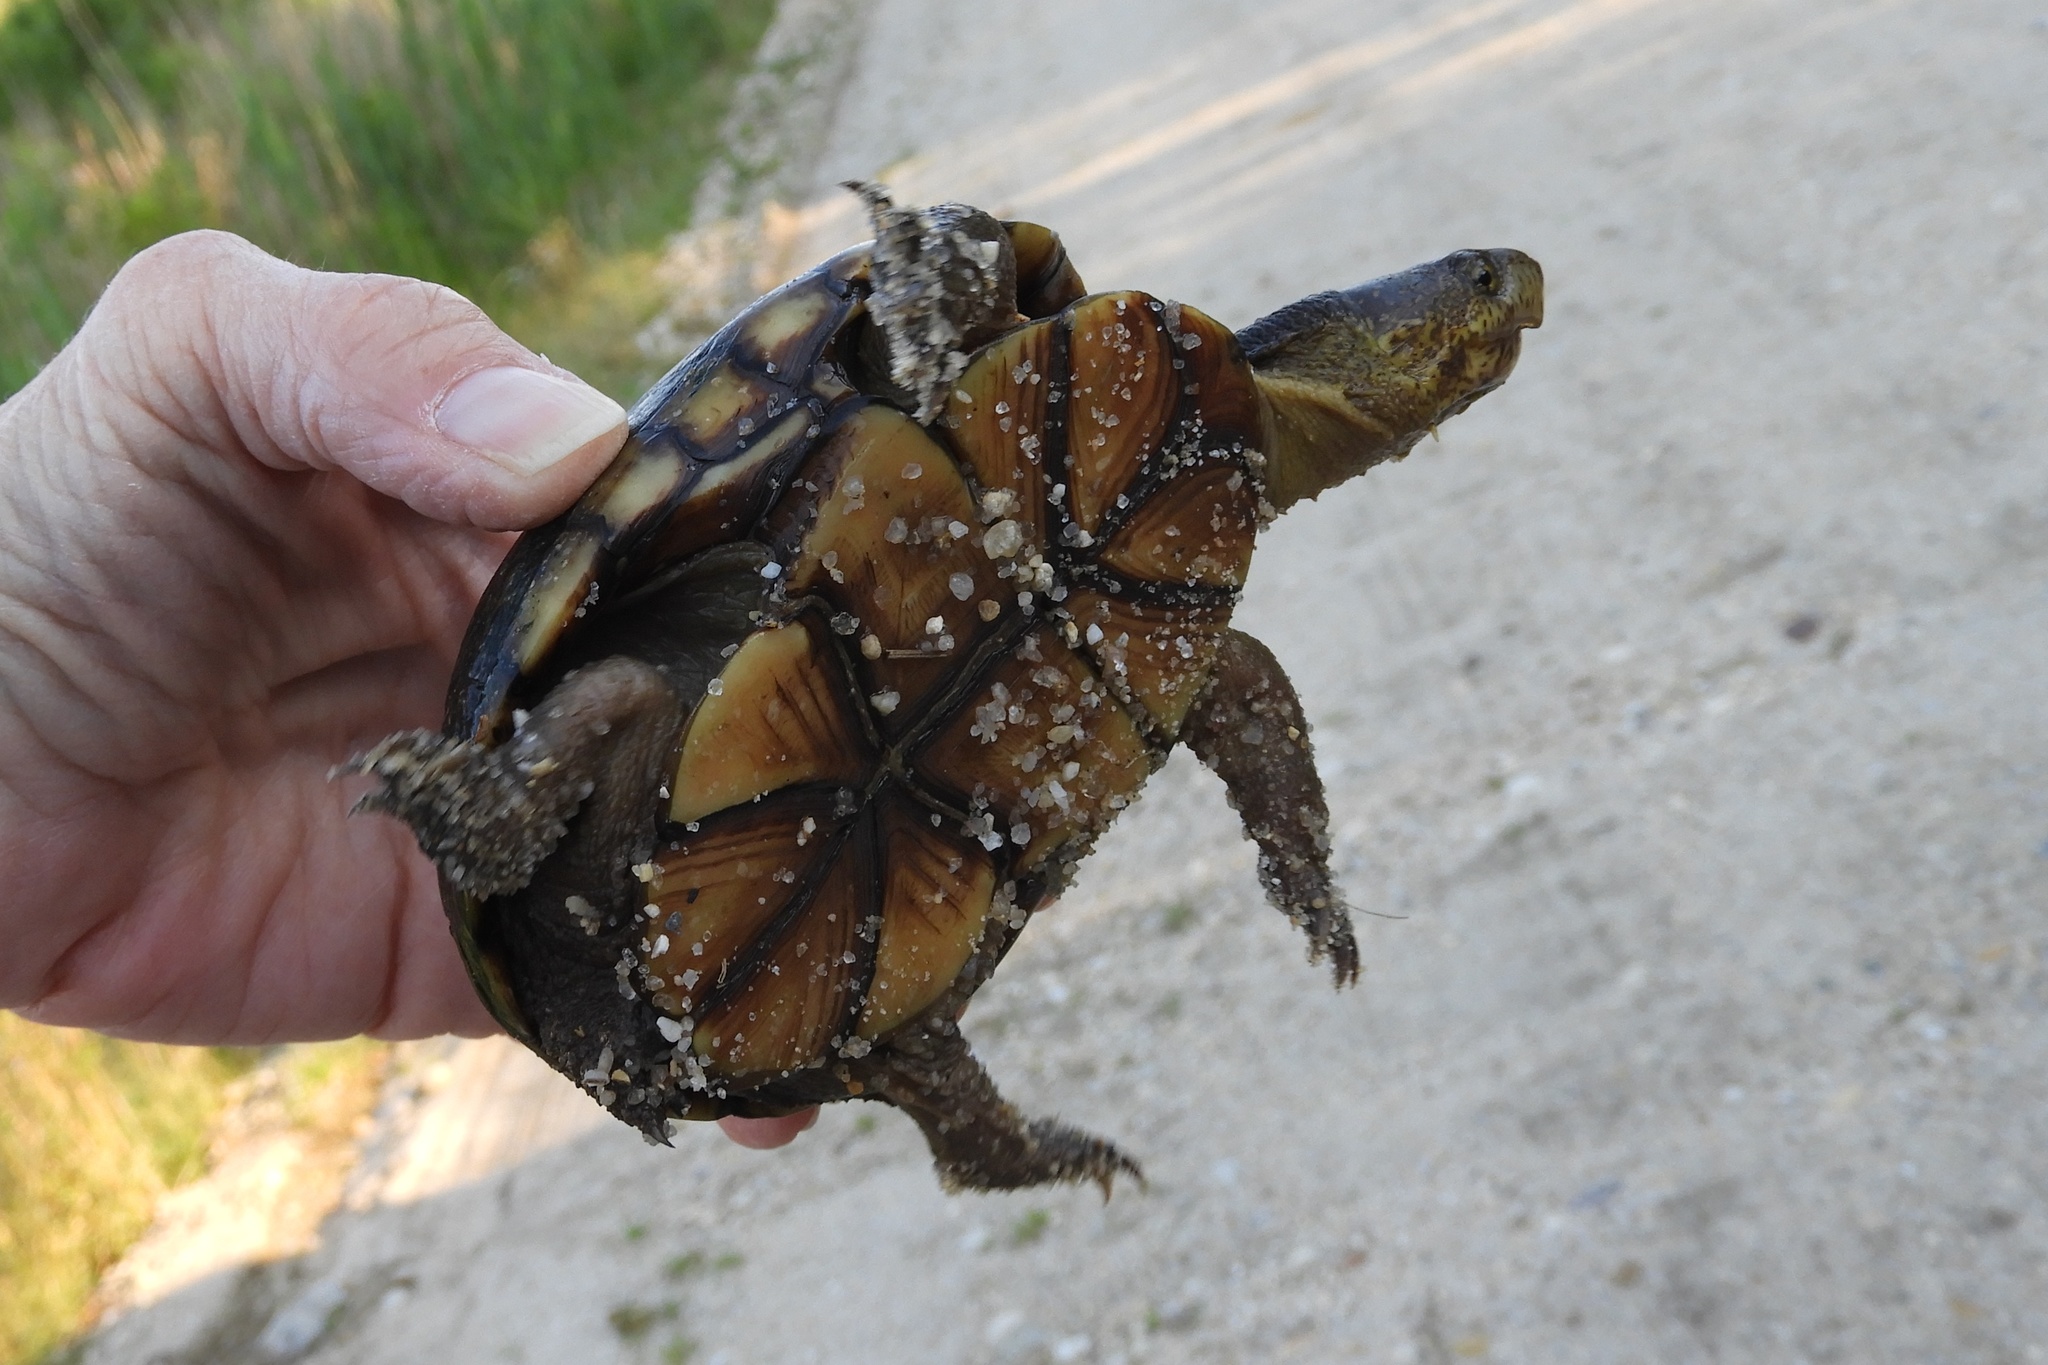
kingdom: Animalia
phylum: Chordata
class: Testudines
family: Kinosternidae
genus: Kinosternon
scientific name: Kinosternon subrubrum
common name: Eastern mud turtle
